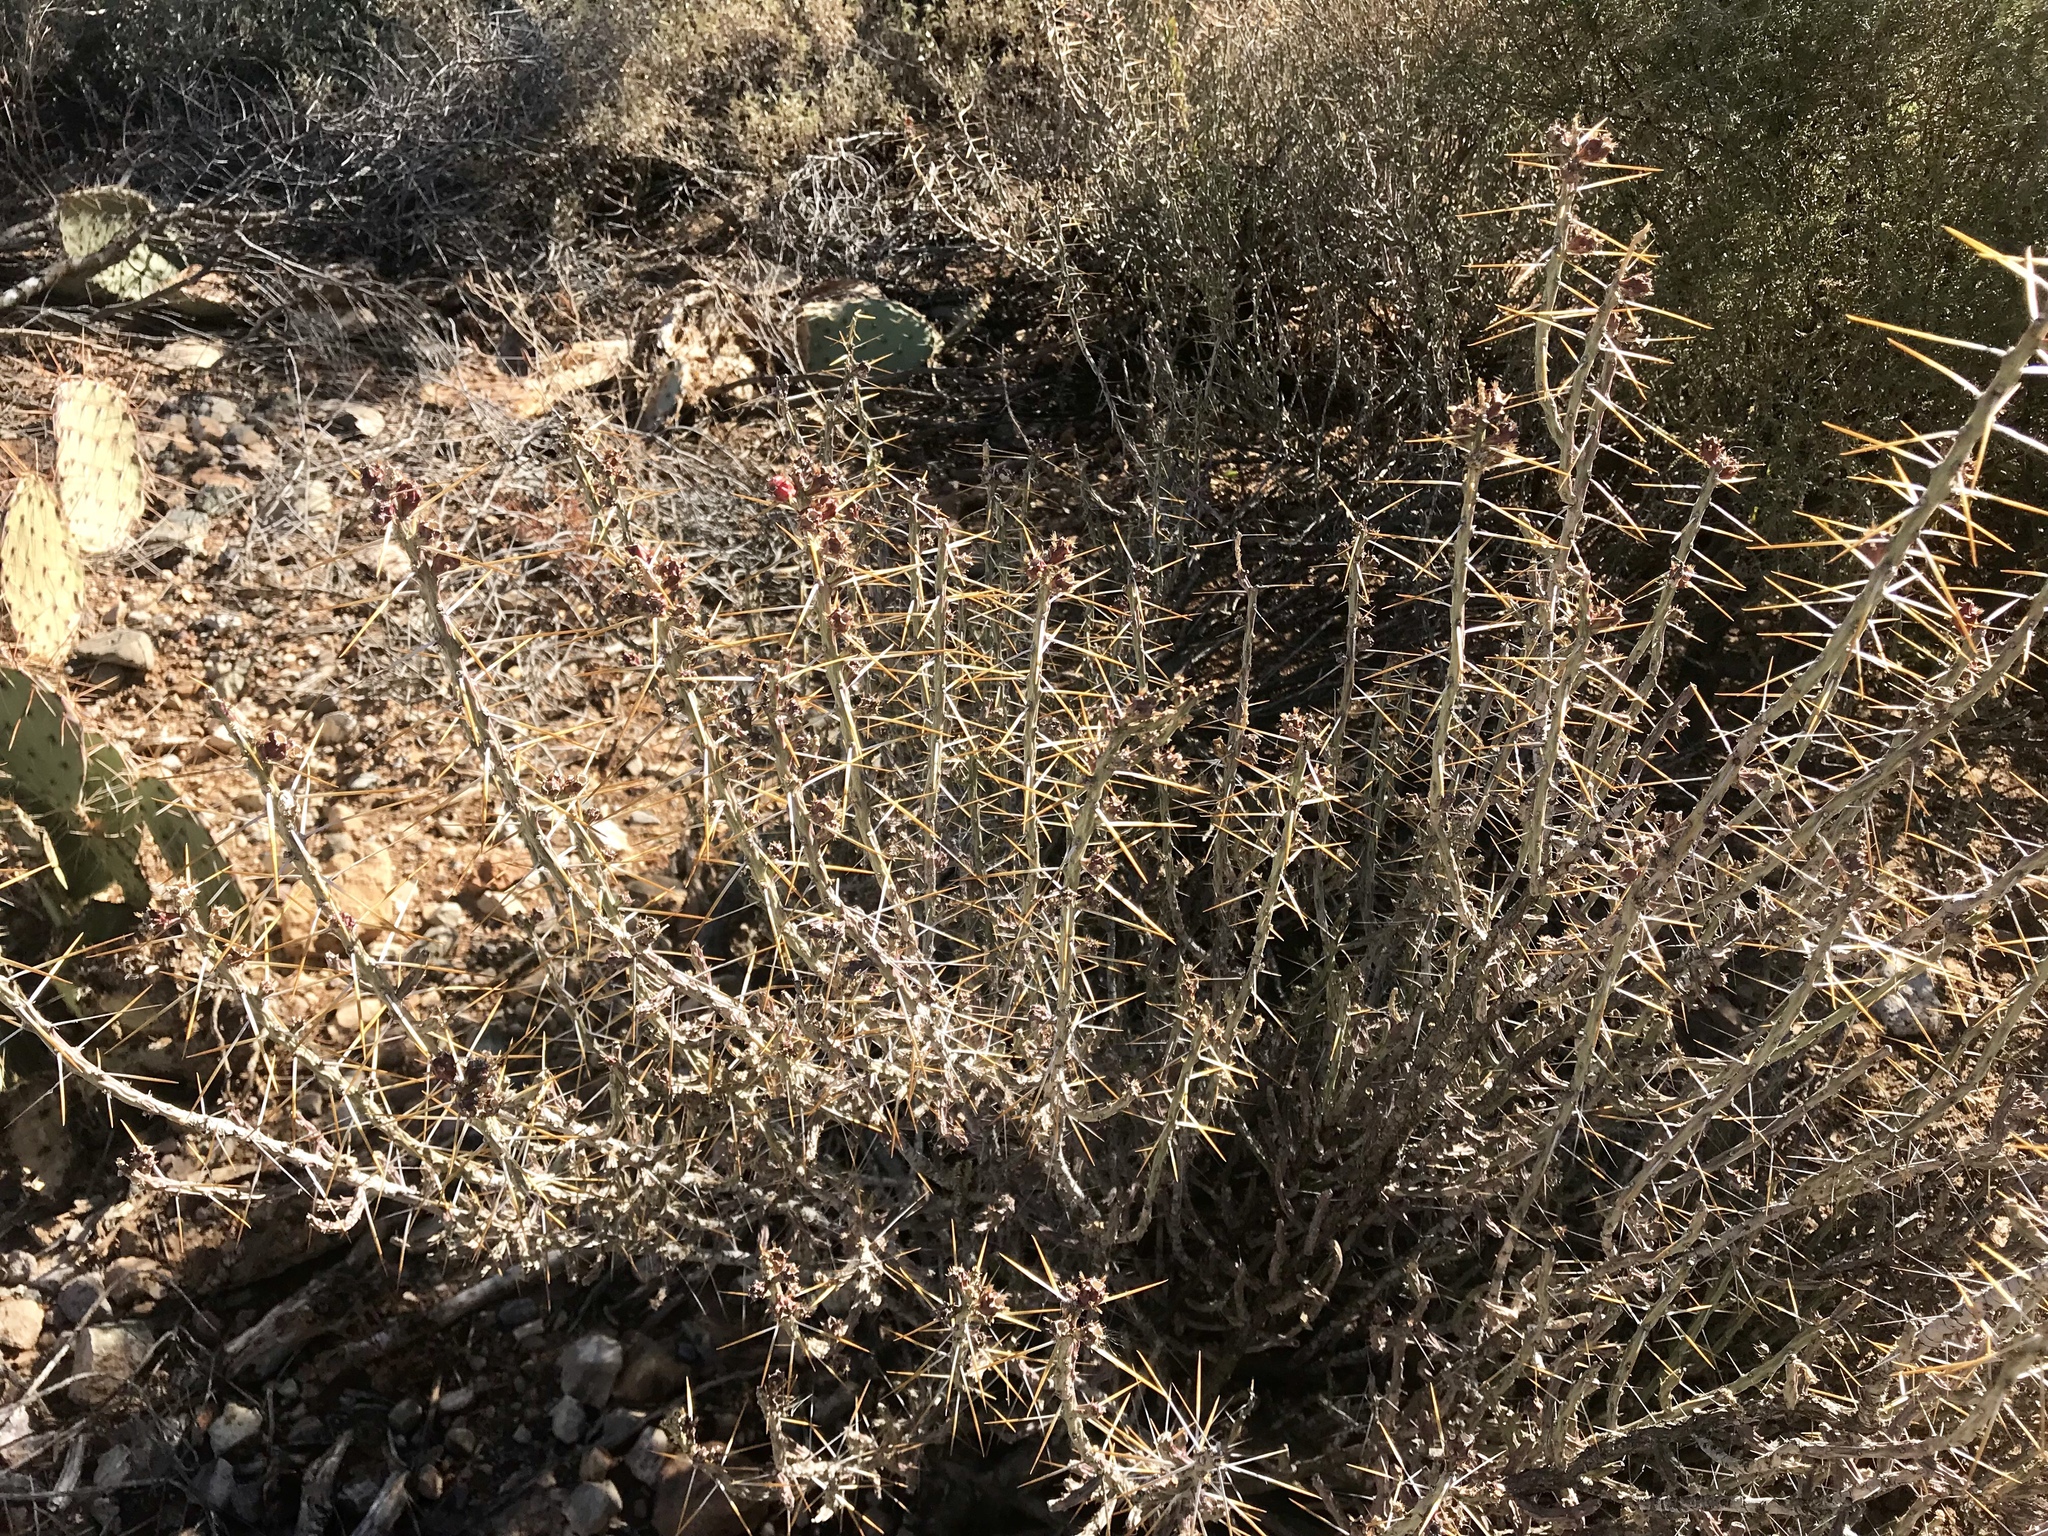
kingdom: Plantae
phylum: Tracheophyta
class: Magnoliopsida
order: Caryophyllales
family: Cactaceae
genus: Cylindropuntia
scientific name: Cylindropuntia leptocaulis
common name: Christmas cactus
